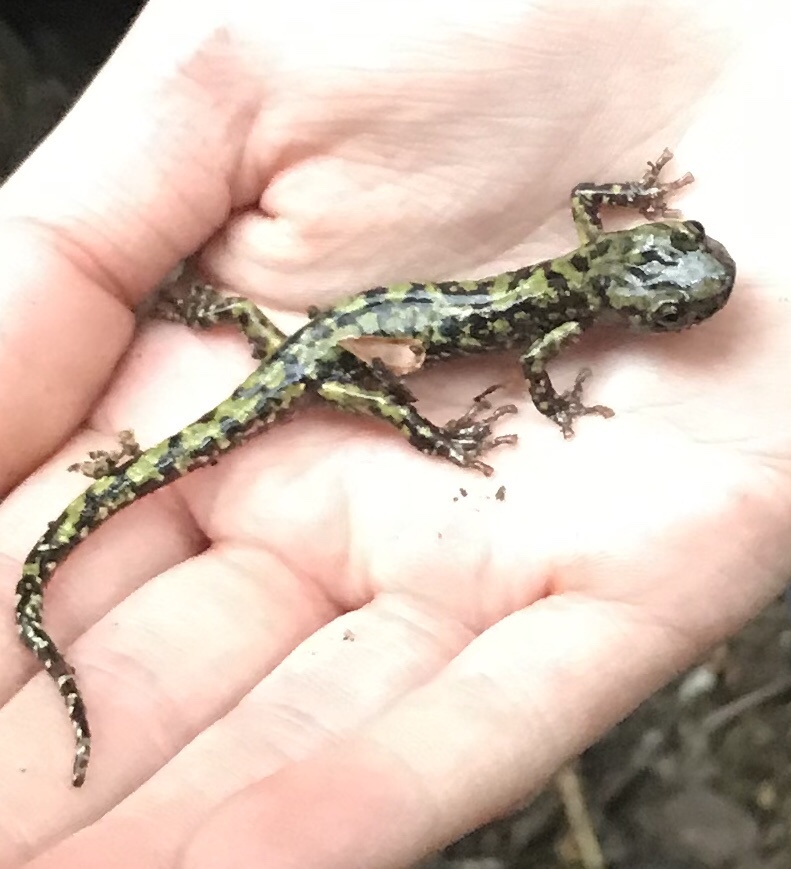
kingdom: Animalia
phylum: Chordata
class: Amphibia
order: Caudata
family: Plethodontidae
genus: Aneides
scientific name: Aneides aeneus
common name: Green salamander
